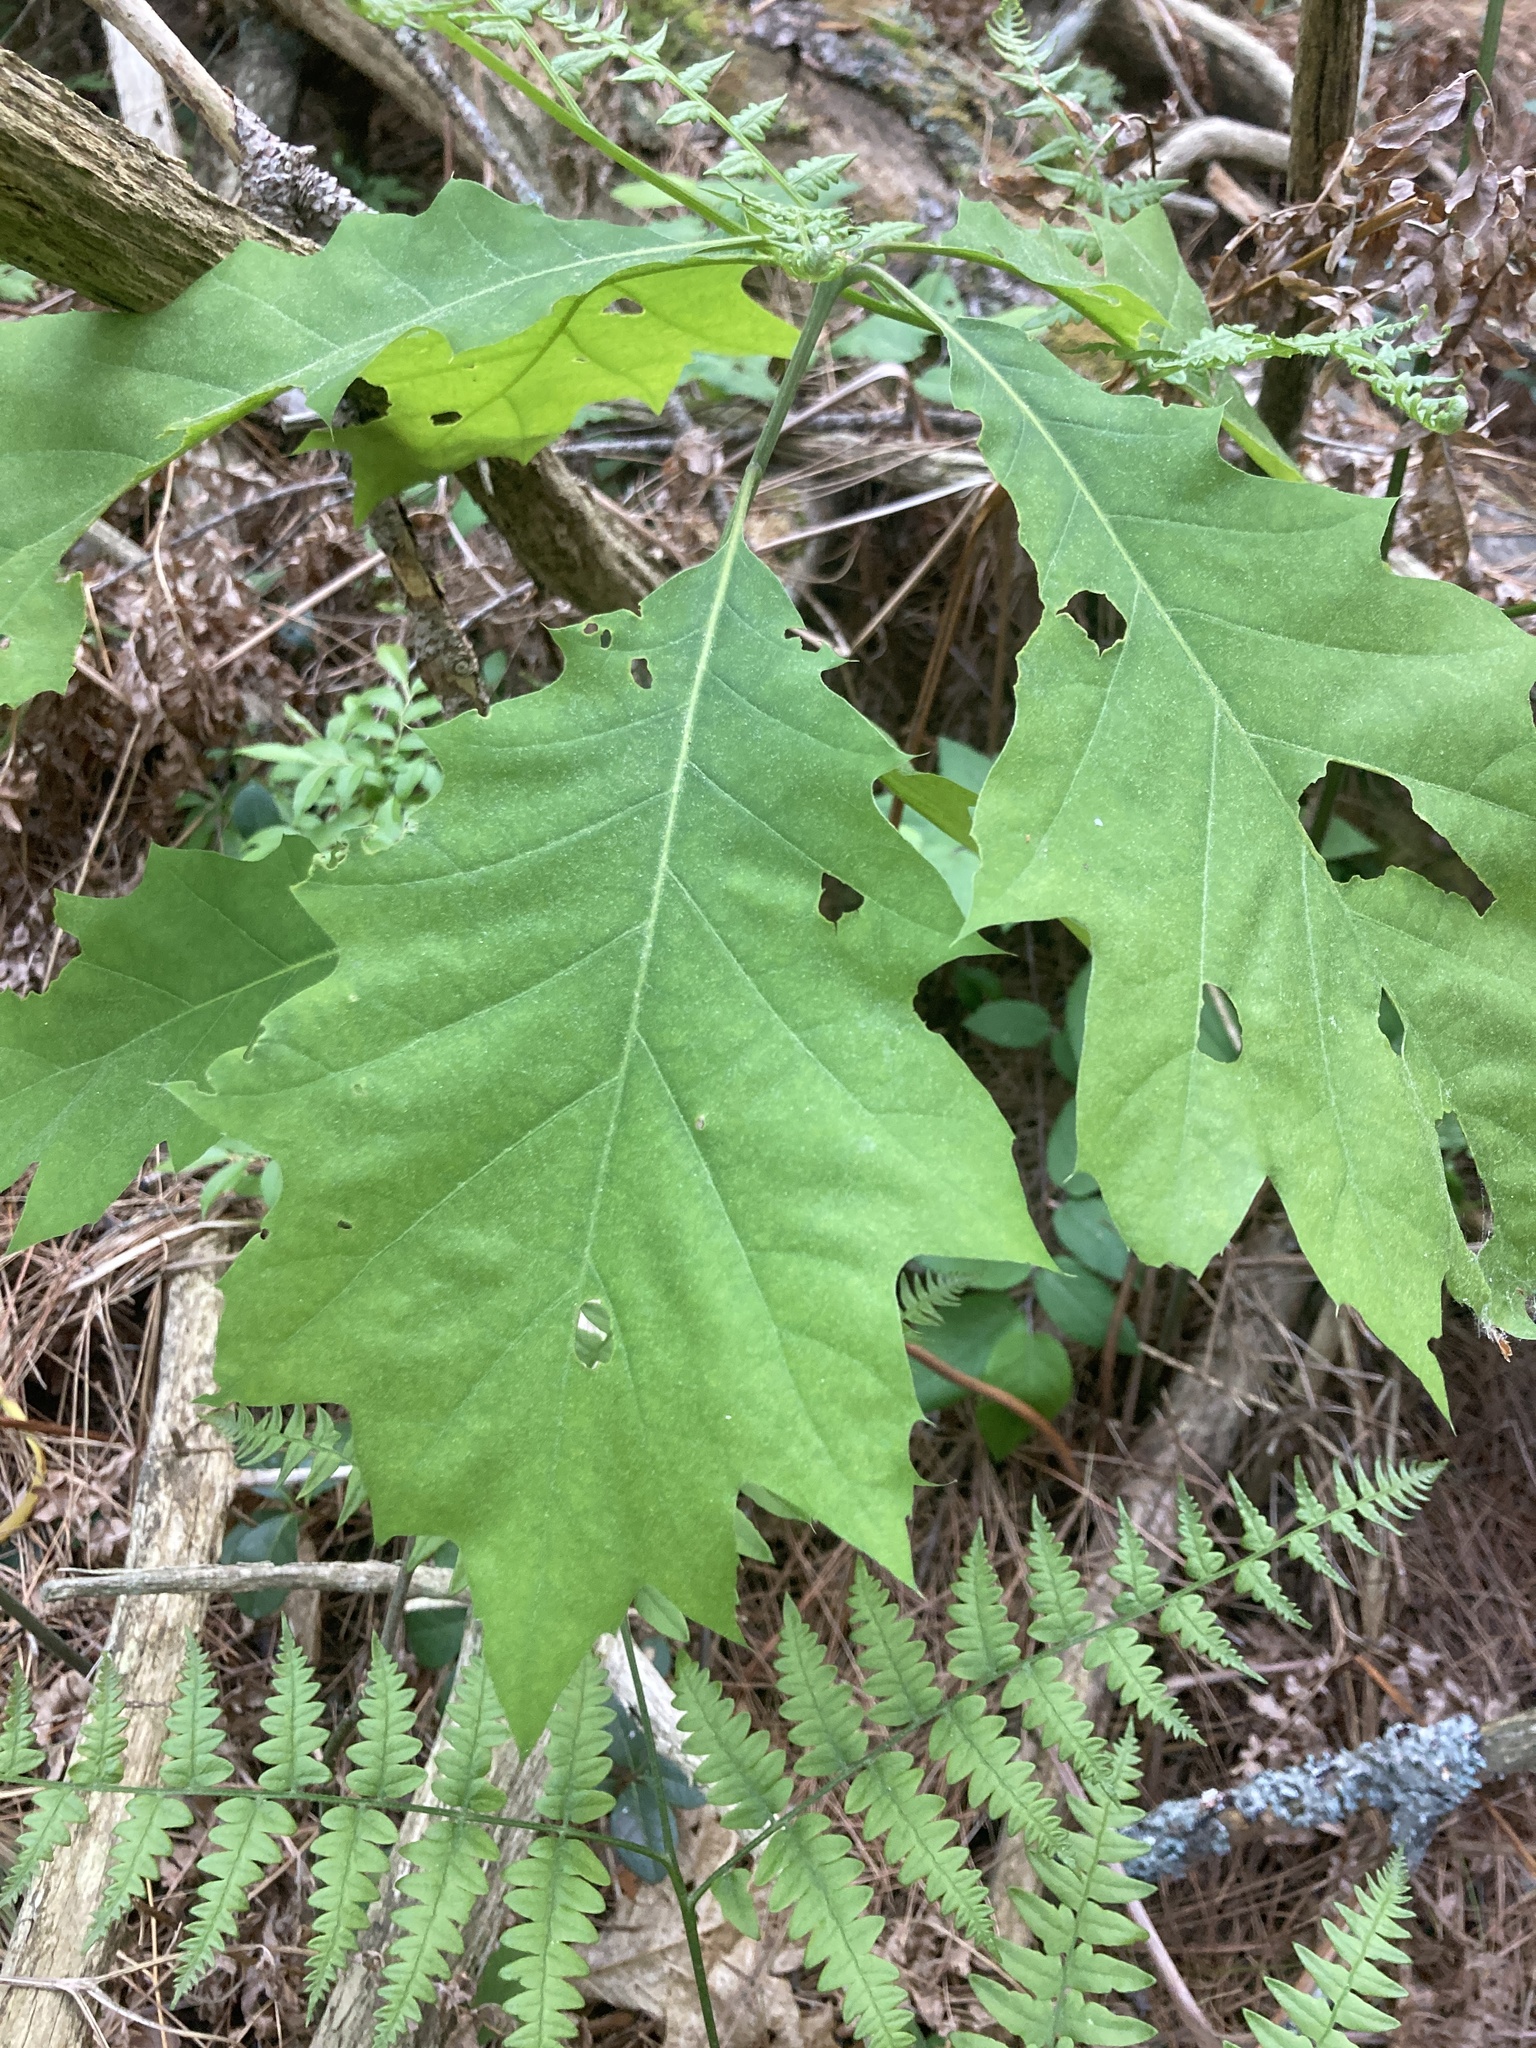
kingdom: Plantae
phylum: Tracheophyta
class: Magnoliopsida
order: Fagales
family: Fagaceae
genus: Quercus
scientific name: Quercus rubra
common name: Red oak
